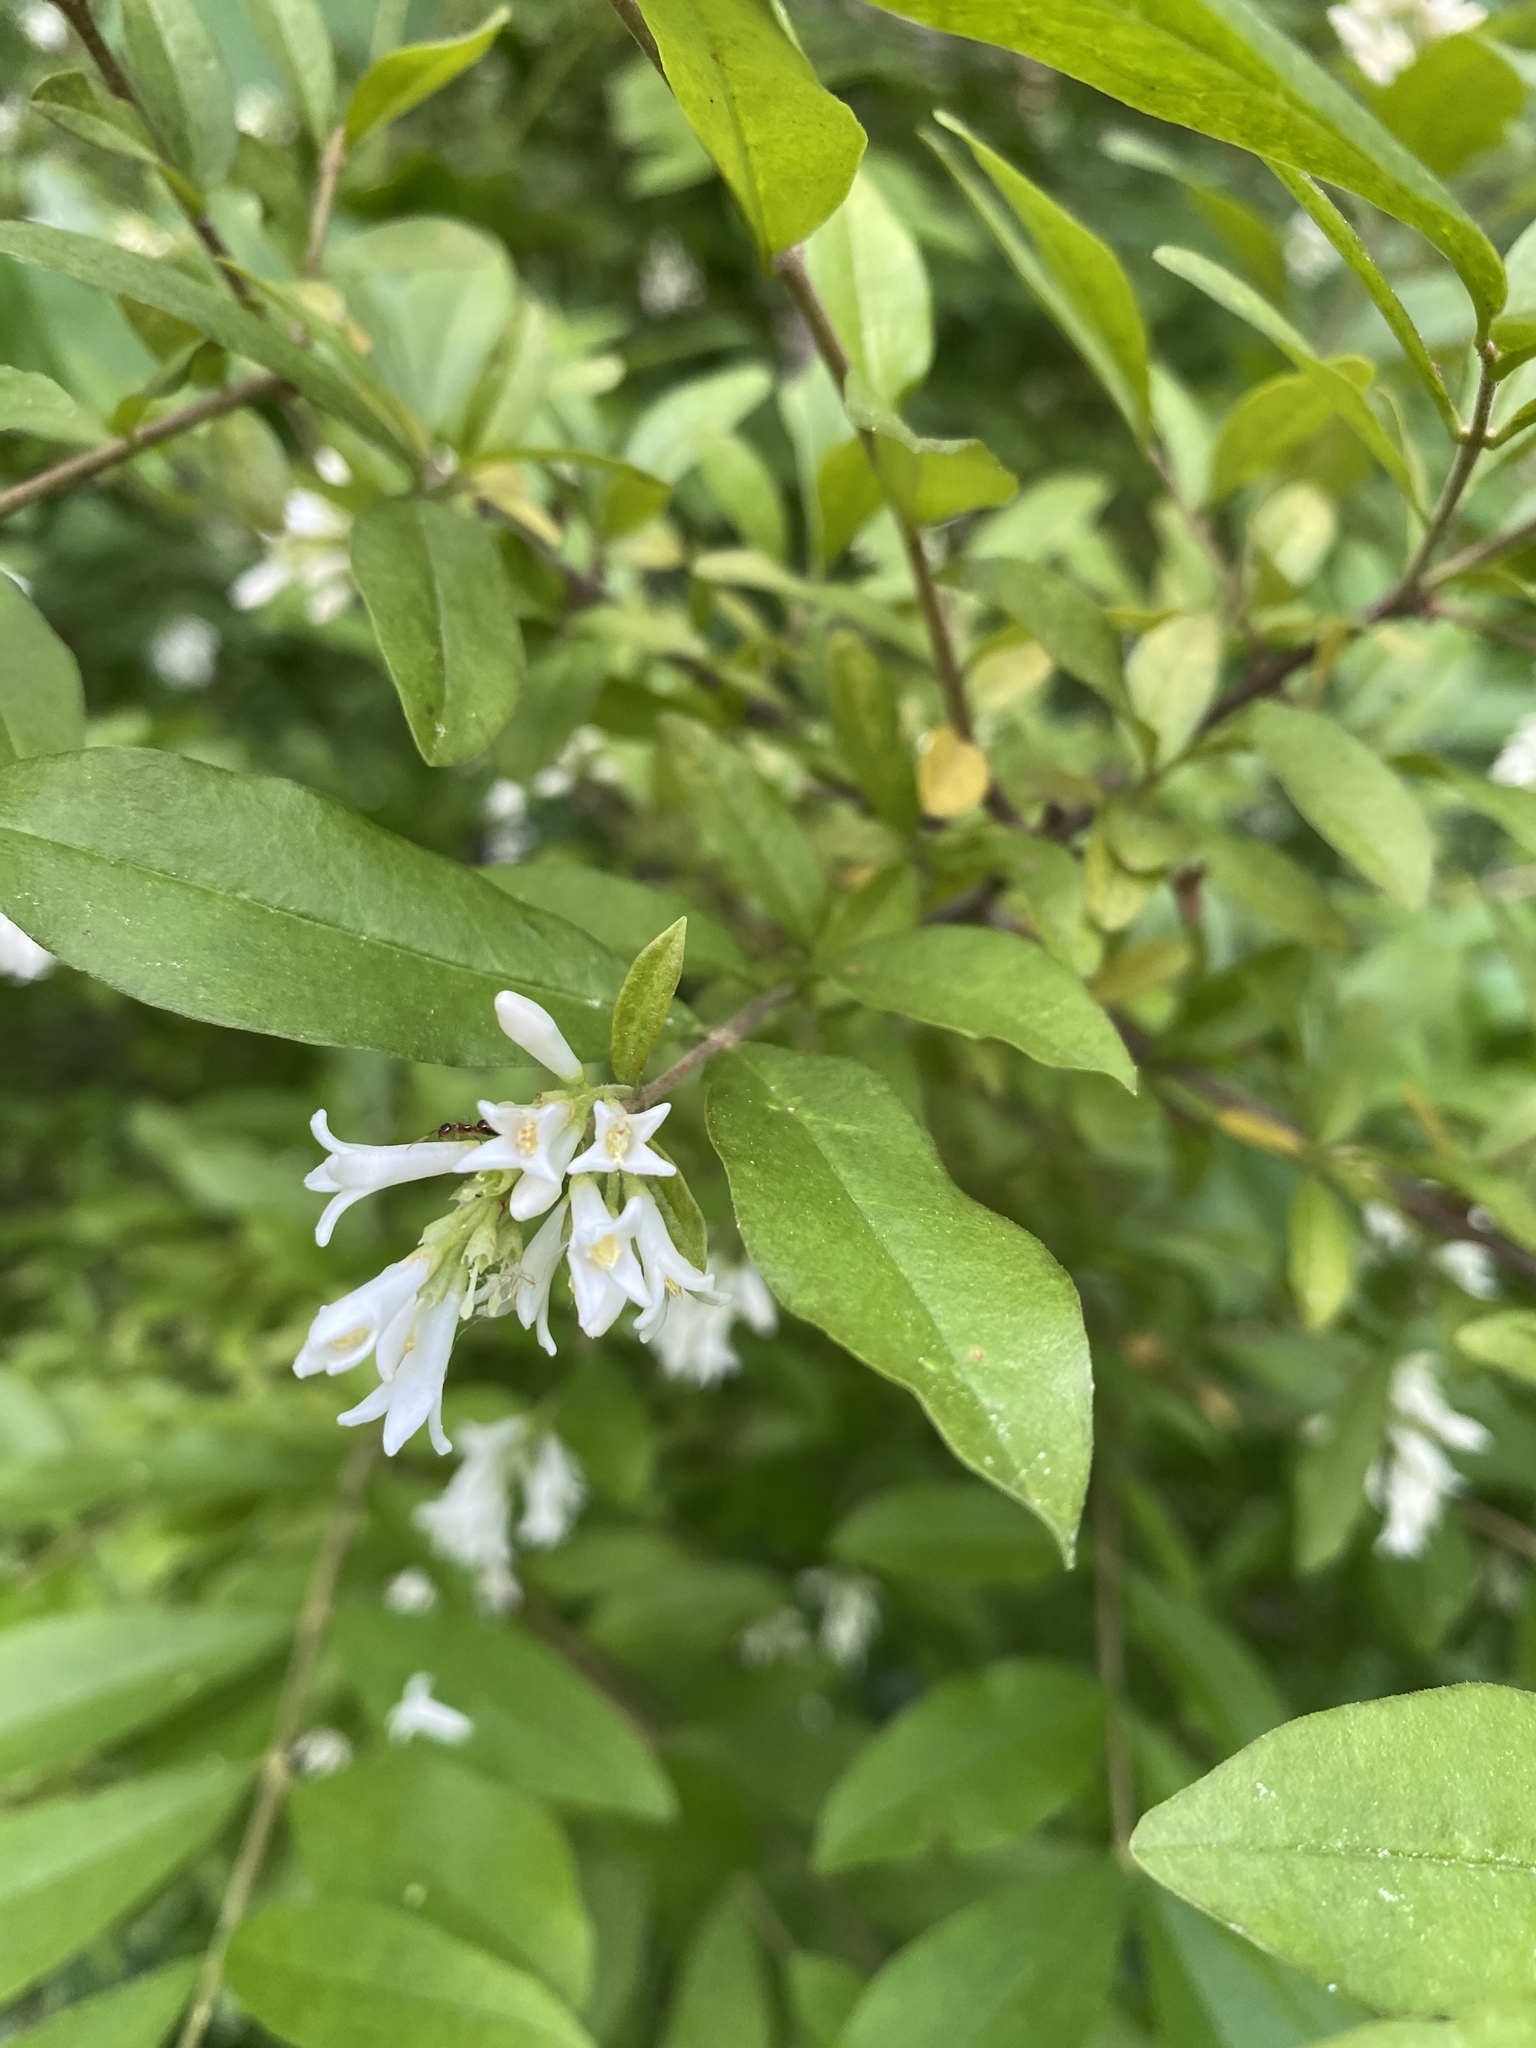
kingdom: Plantae
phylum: Tracheophyta
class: Magnoliopsida
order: Lamiales
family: Oleaceae
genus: Ligustrum
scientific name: Ligustrum obtusifolium
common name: Border privet
